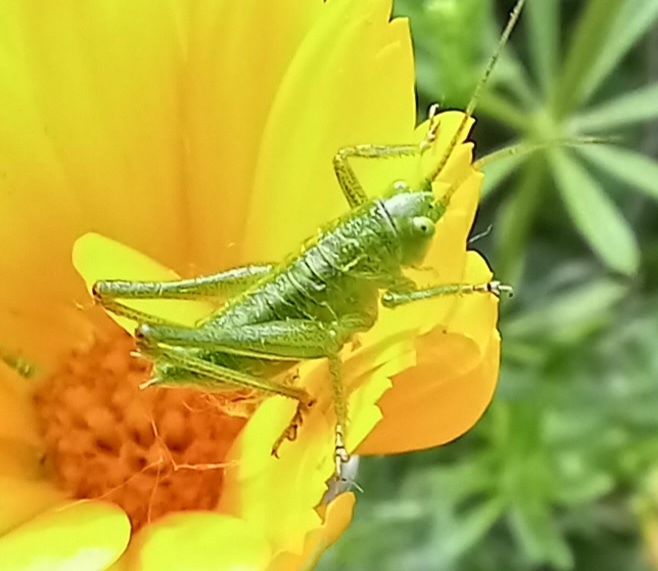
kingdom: Animalia
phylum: Arthropoda
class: Insecta
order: Orthoptera
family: Tettigoniidae
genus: Tettigonia
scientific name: Tettigonia viridissima
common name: Great green bush-cricket
